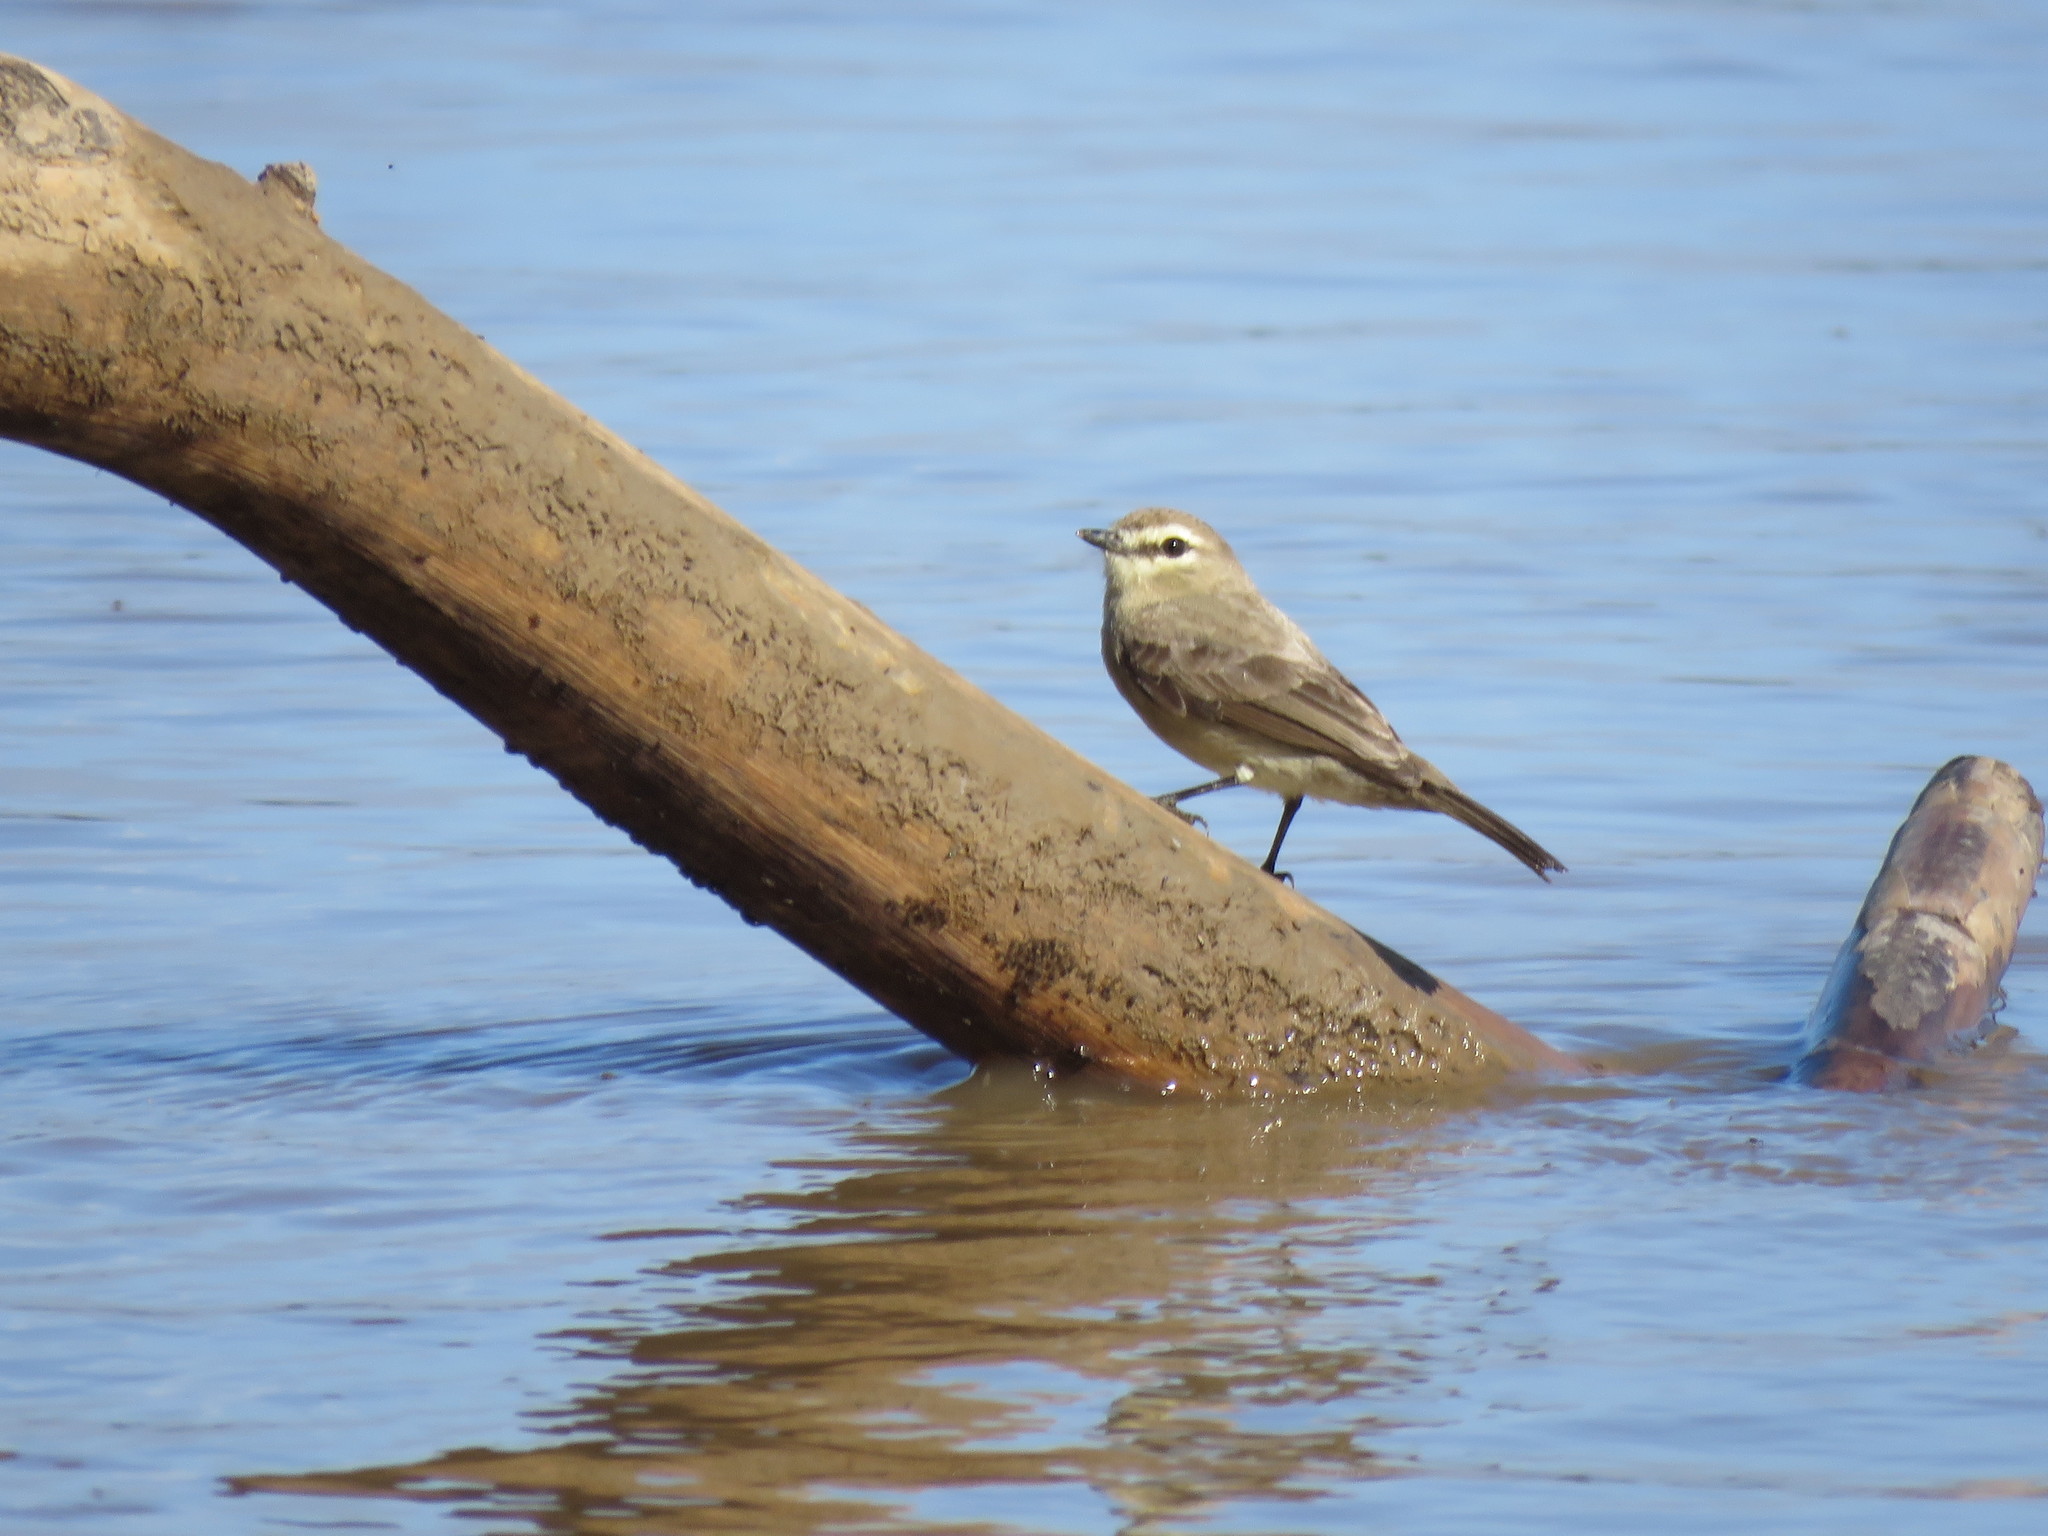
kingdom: Animalia
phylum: Chordata
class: Aves
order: Passeriformes
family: Tyrannidae
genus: Ochthornis
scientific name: Ochthornis littoralis
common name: Drab water tyrant
